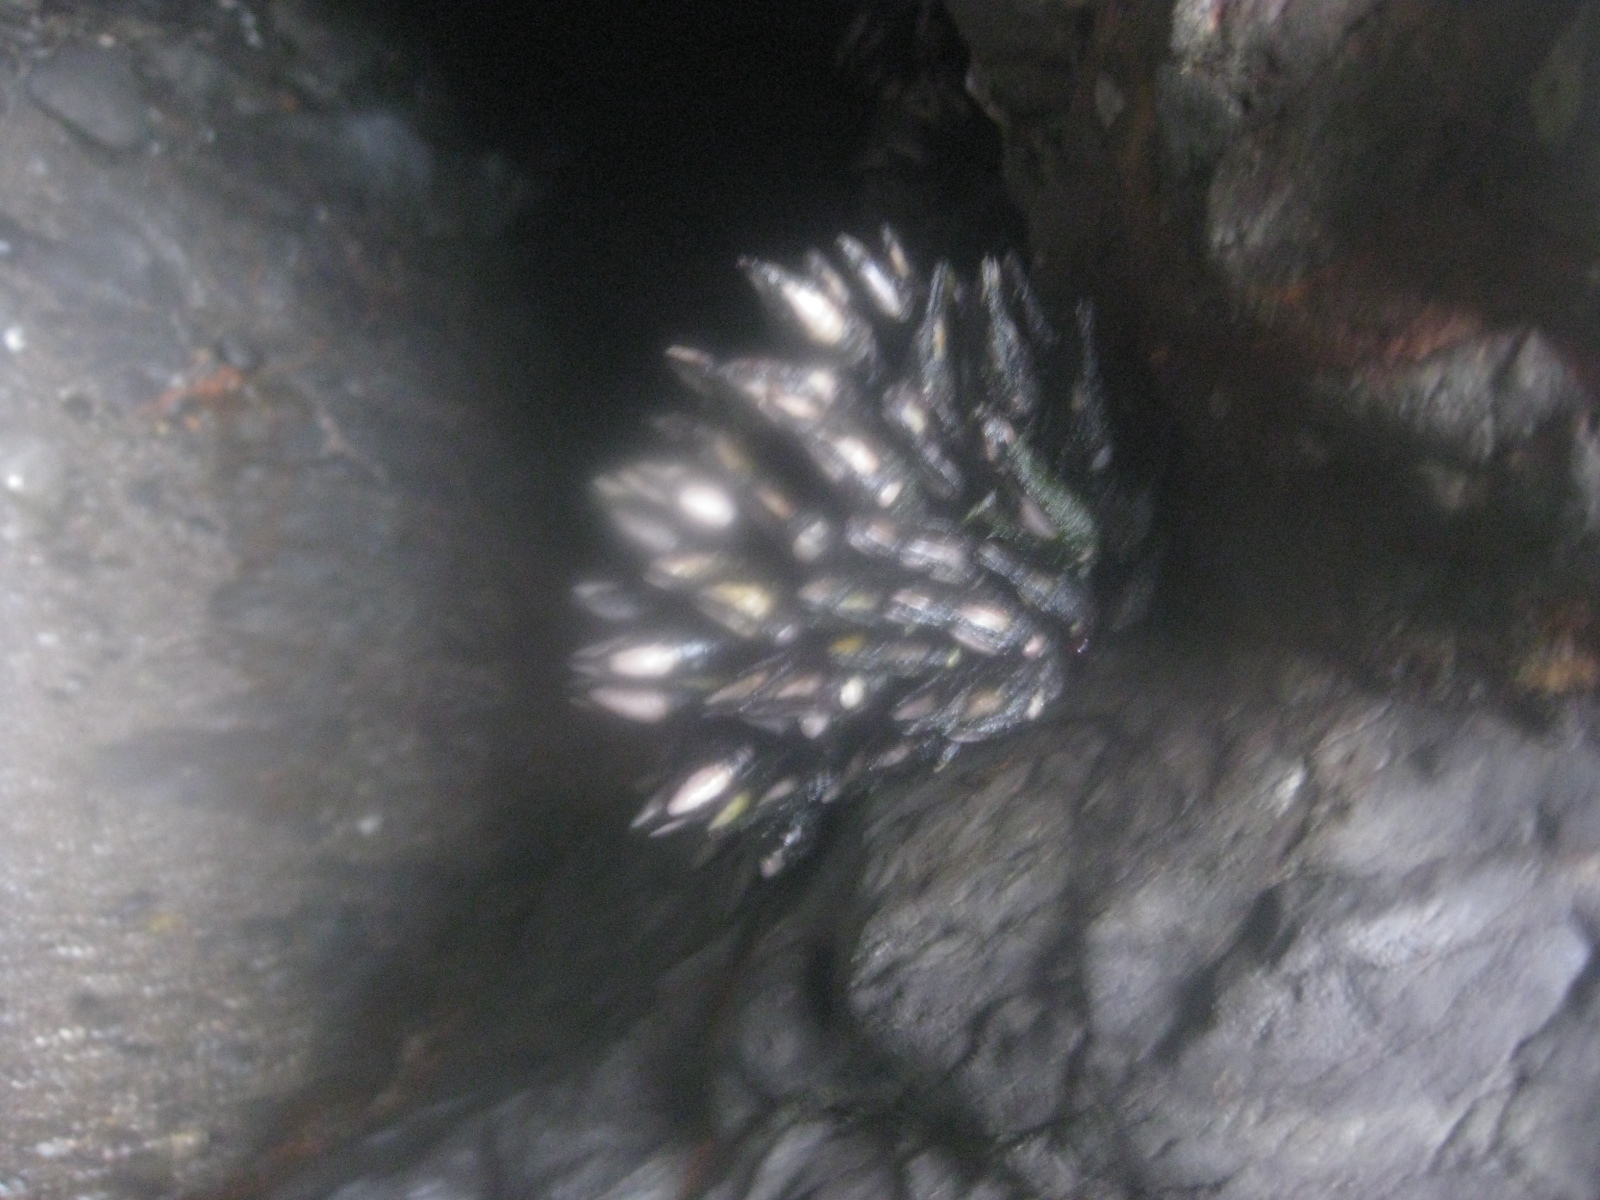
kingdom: Animalia
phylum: Arthropoda
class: Maxillopoda
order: Pedunculata
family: Calanticidae
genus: Calantica
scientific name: Calantica spinosa
